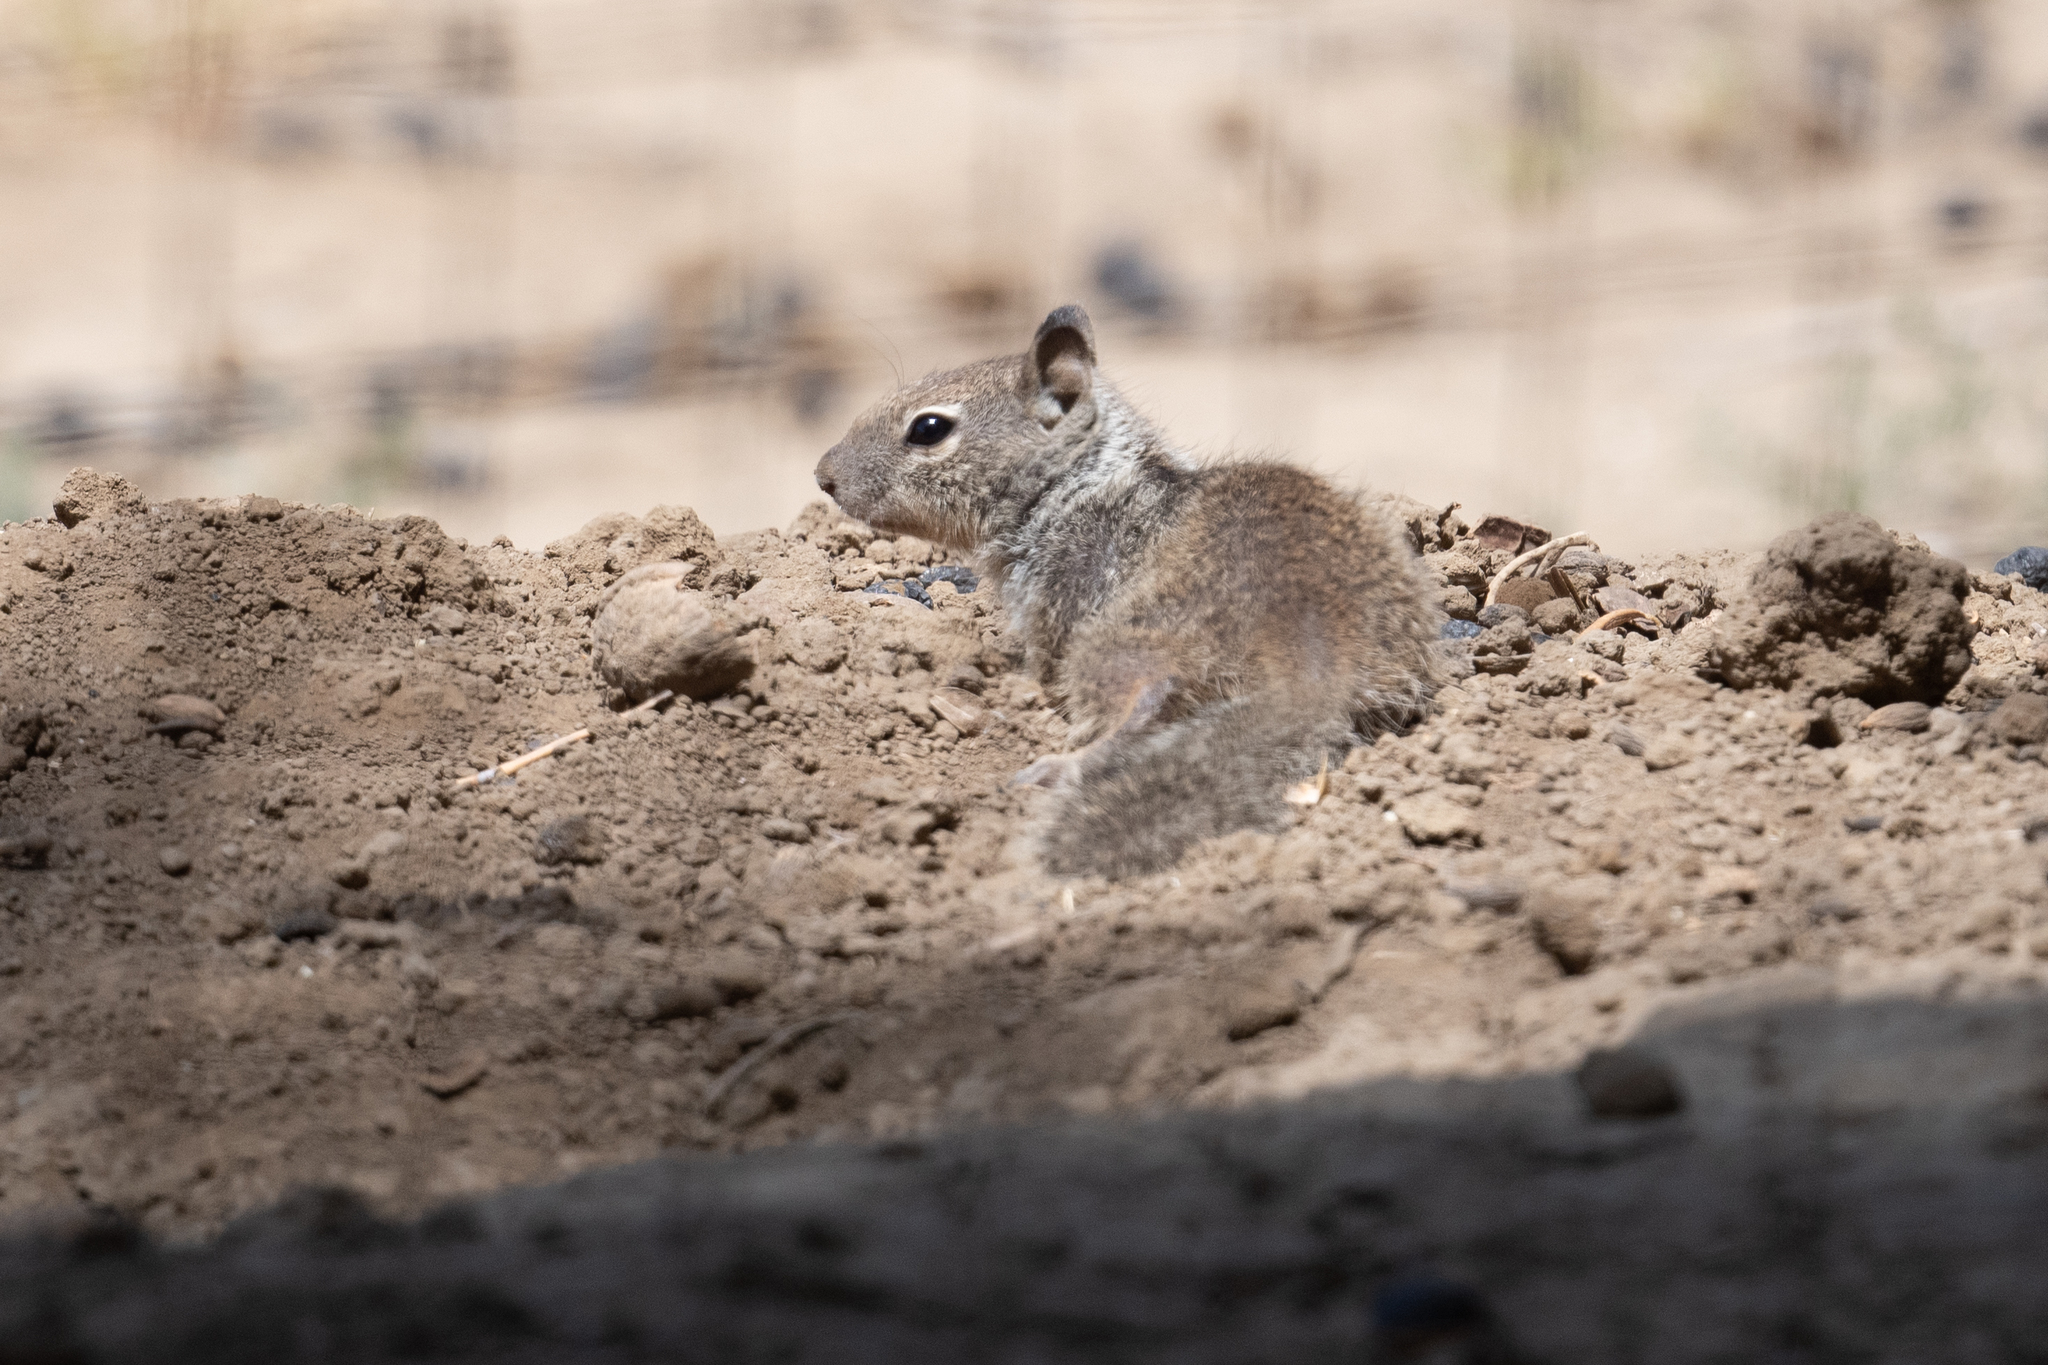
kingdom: Animalia
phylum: Chordata
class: Mammalia
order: Rodentia
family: Sciuridae
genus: Otospermophilus
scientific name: Otospermophilus beecheyi
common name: California ground squirrel
